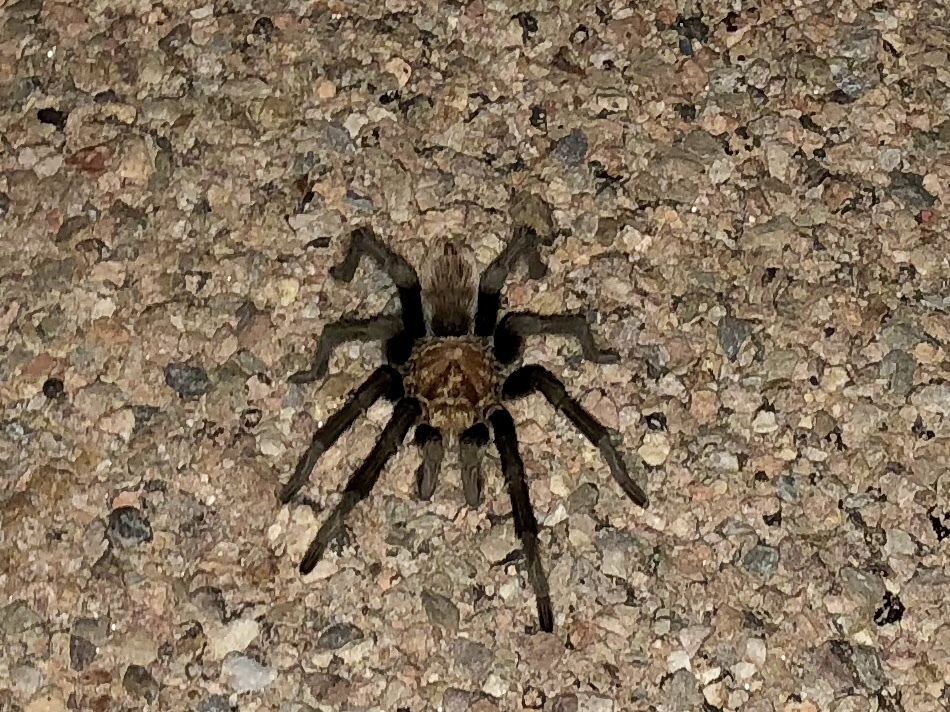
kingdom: Animalia
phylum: Arthropoda
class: Arachnida
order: Araneae
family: Theraphosidae
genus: Aphonopelma
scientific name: Aphonopelma chalcodes
